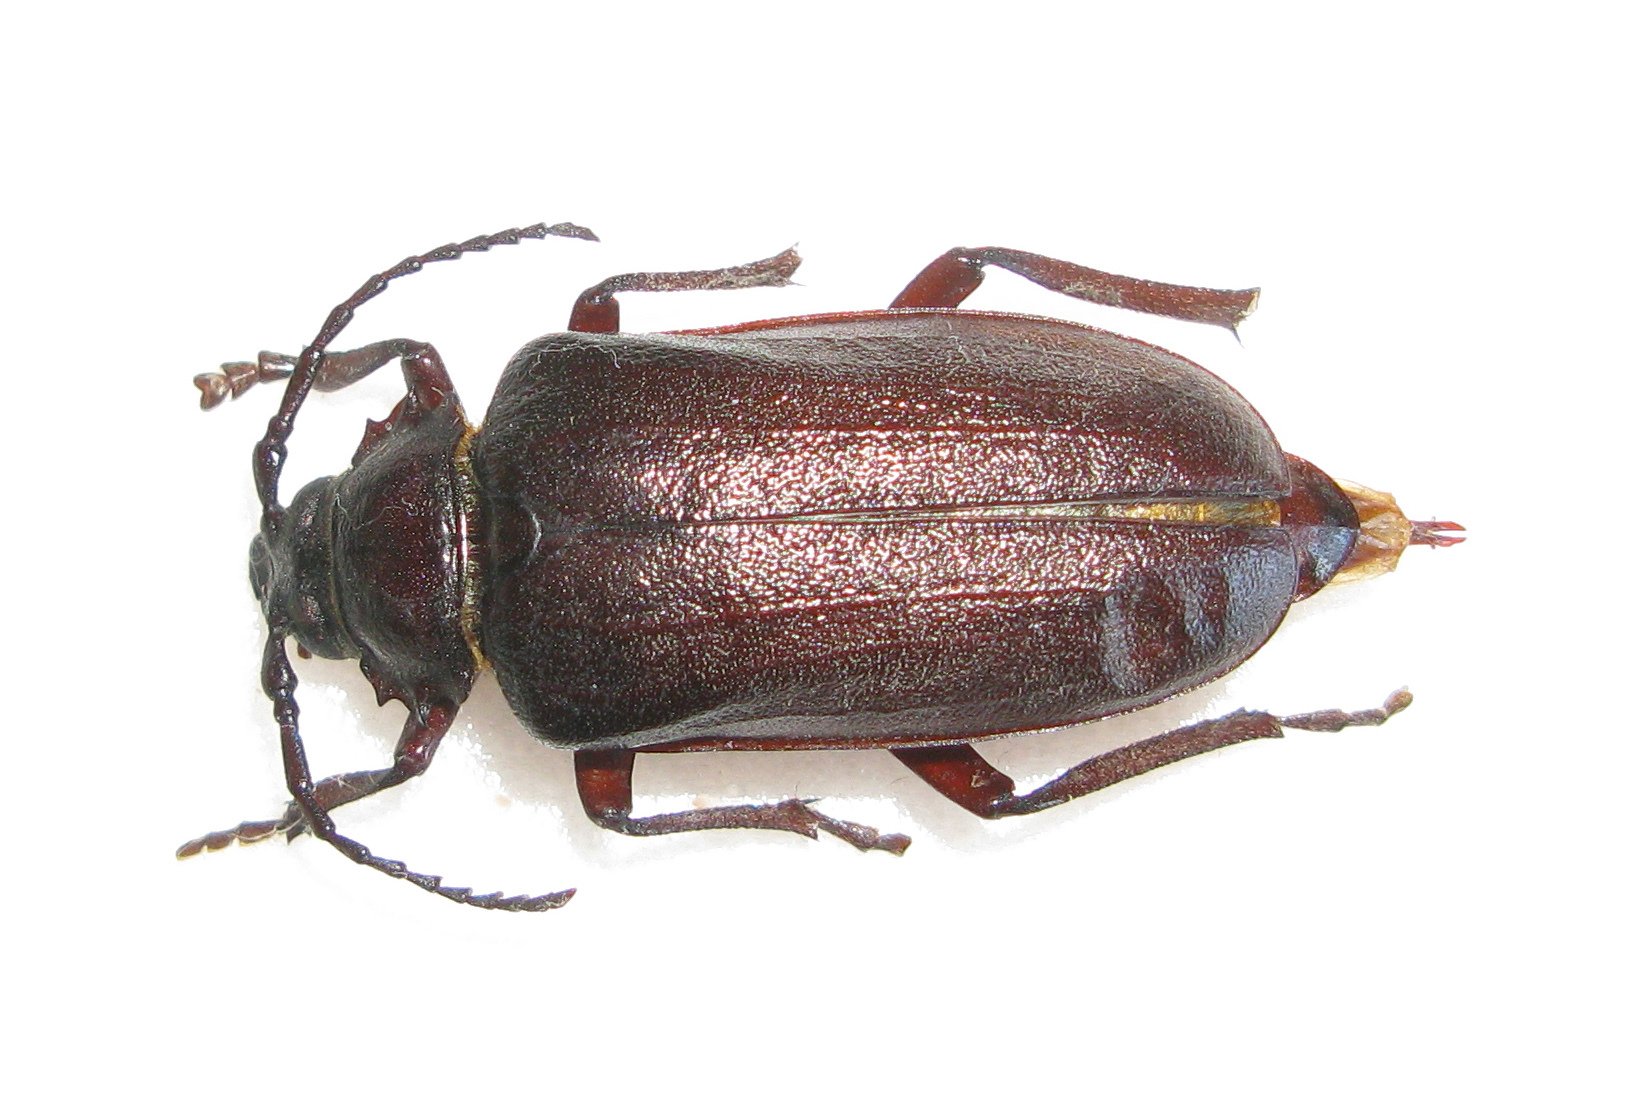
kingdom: Animalia
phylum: Arthropoda
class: Insecta
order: Coleoptera
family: Cerambycidae
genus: Prionus
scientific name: Prionus coriarius
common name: Tanner beetle
